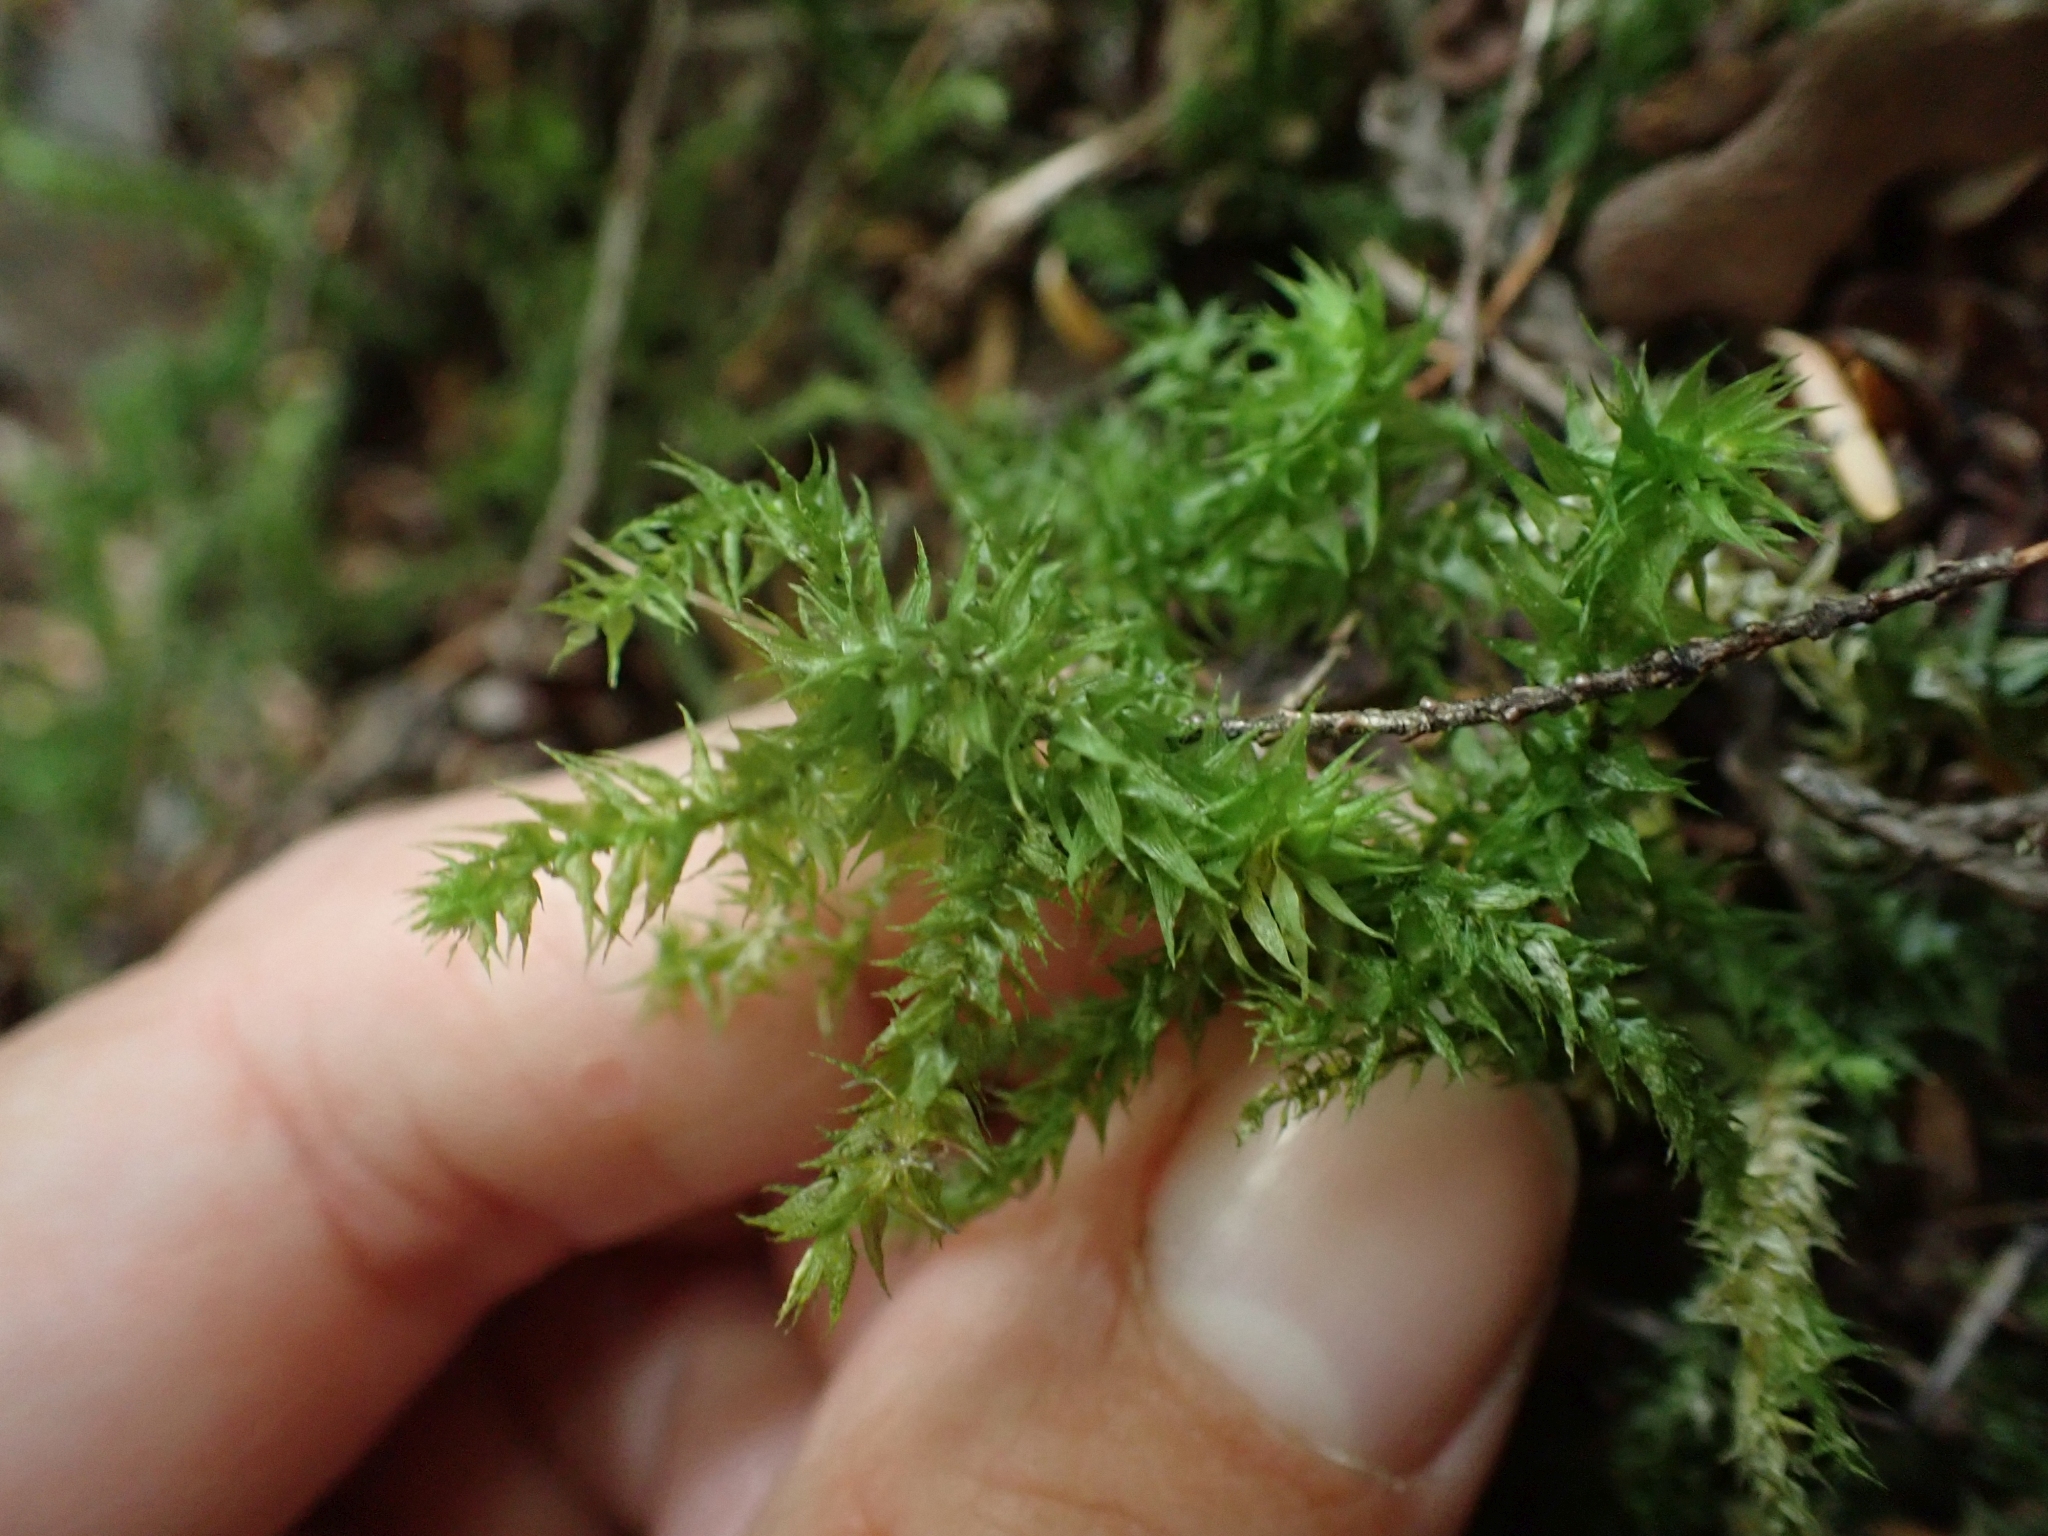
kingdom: Plantae
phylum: Bryophyta
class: Bryopsida
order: Hypnales
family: Hylocomiaceae
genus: Hylocomiadelphus
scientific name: Hylocomiadelphus triquetrus
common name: Rough goose neck moss
